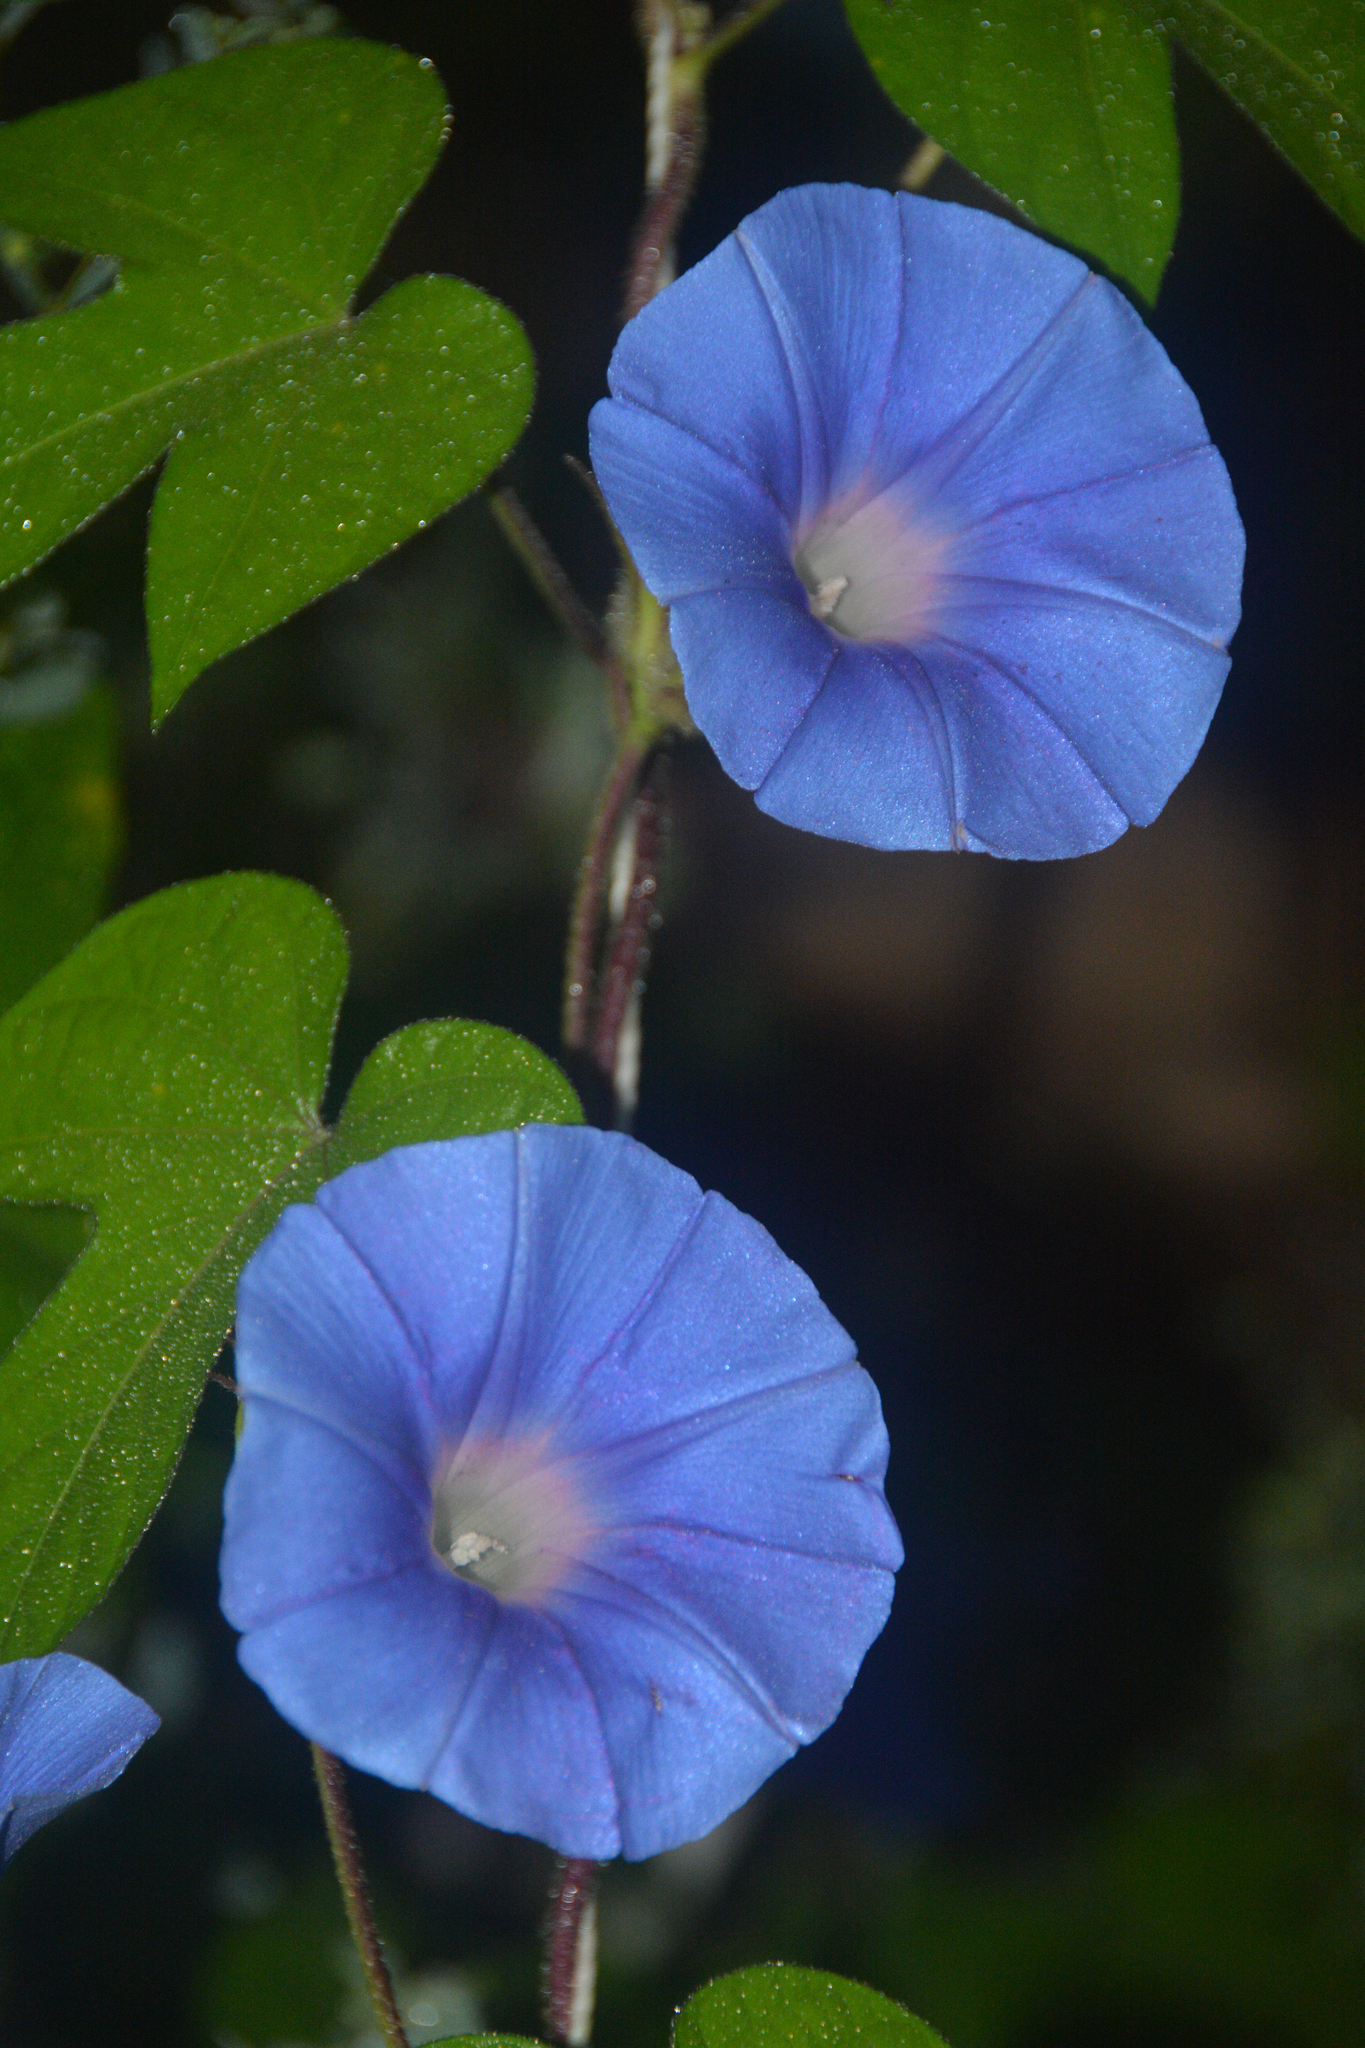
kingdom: Plantae
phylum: Tracheophyta
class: Magnoliopsida
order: Solanales
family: Convolvulaceae
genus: Ipomoea
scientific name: Ipomoea hederacea
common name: Ivy-leaved morning-glory
